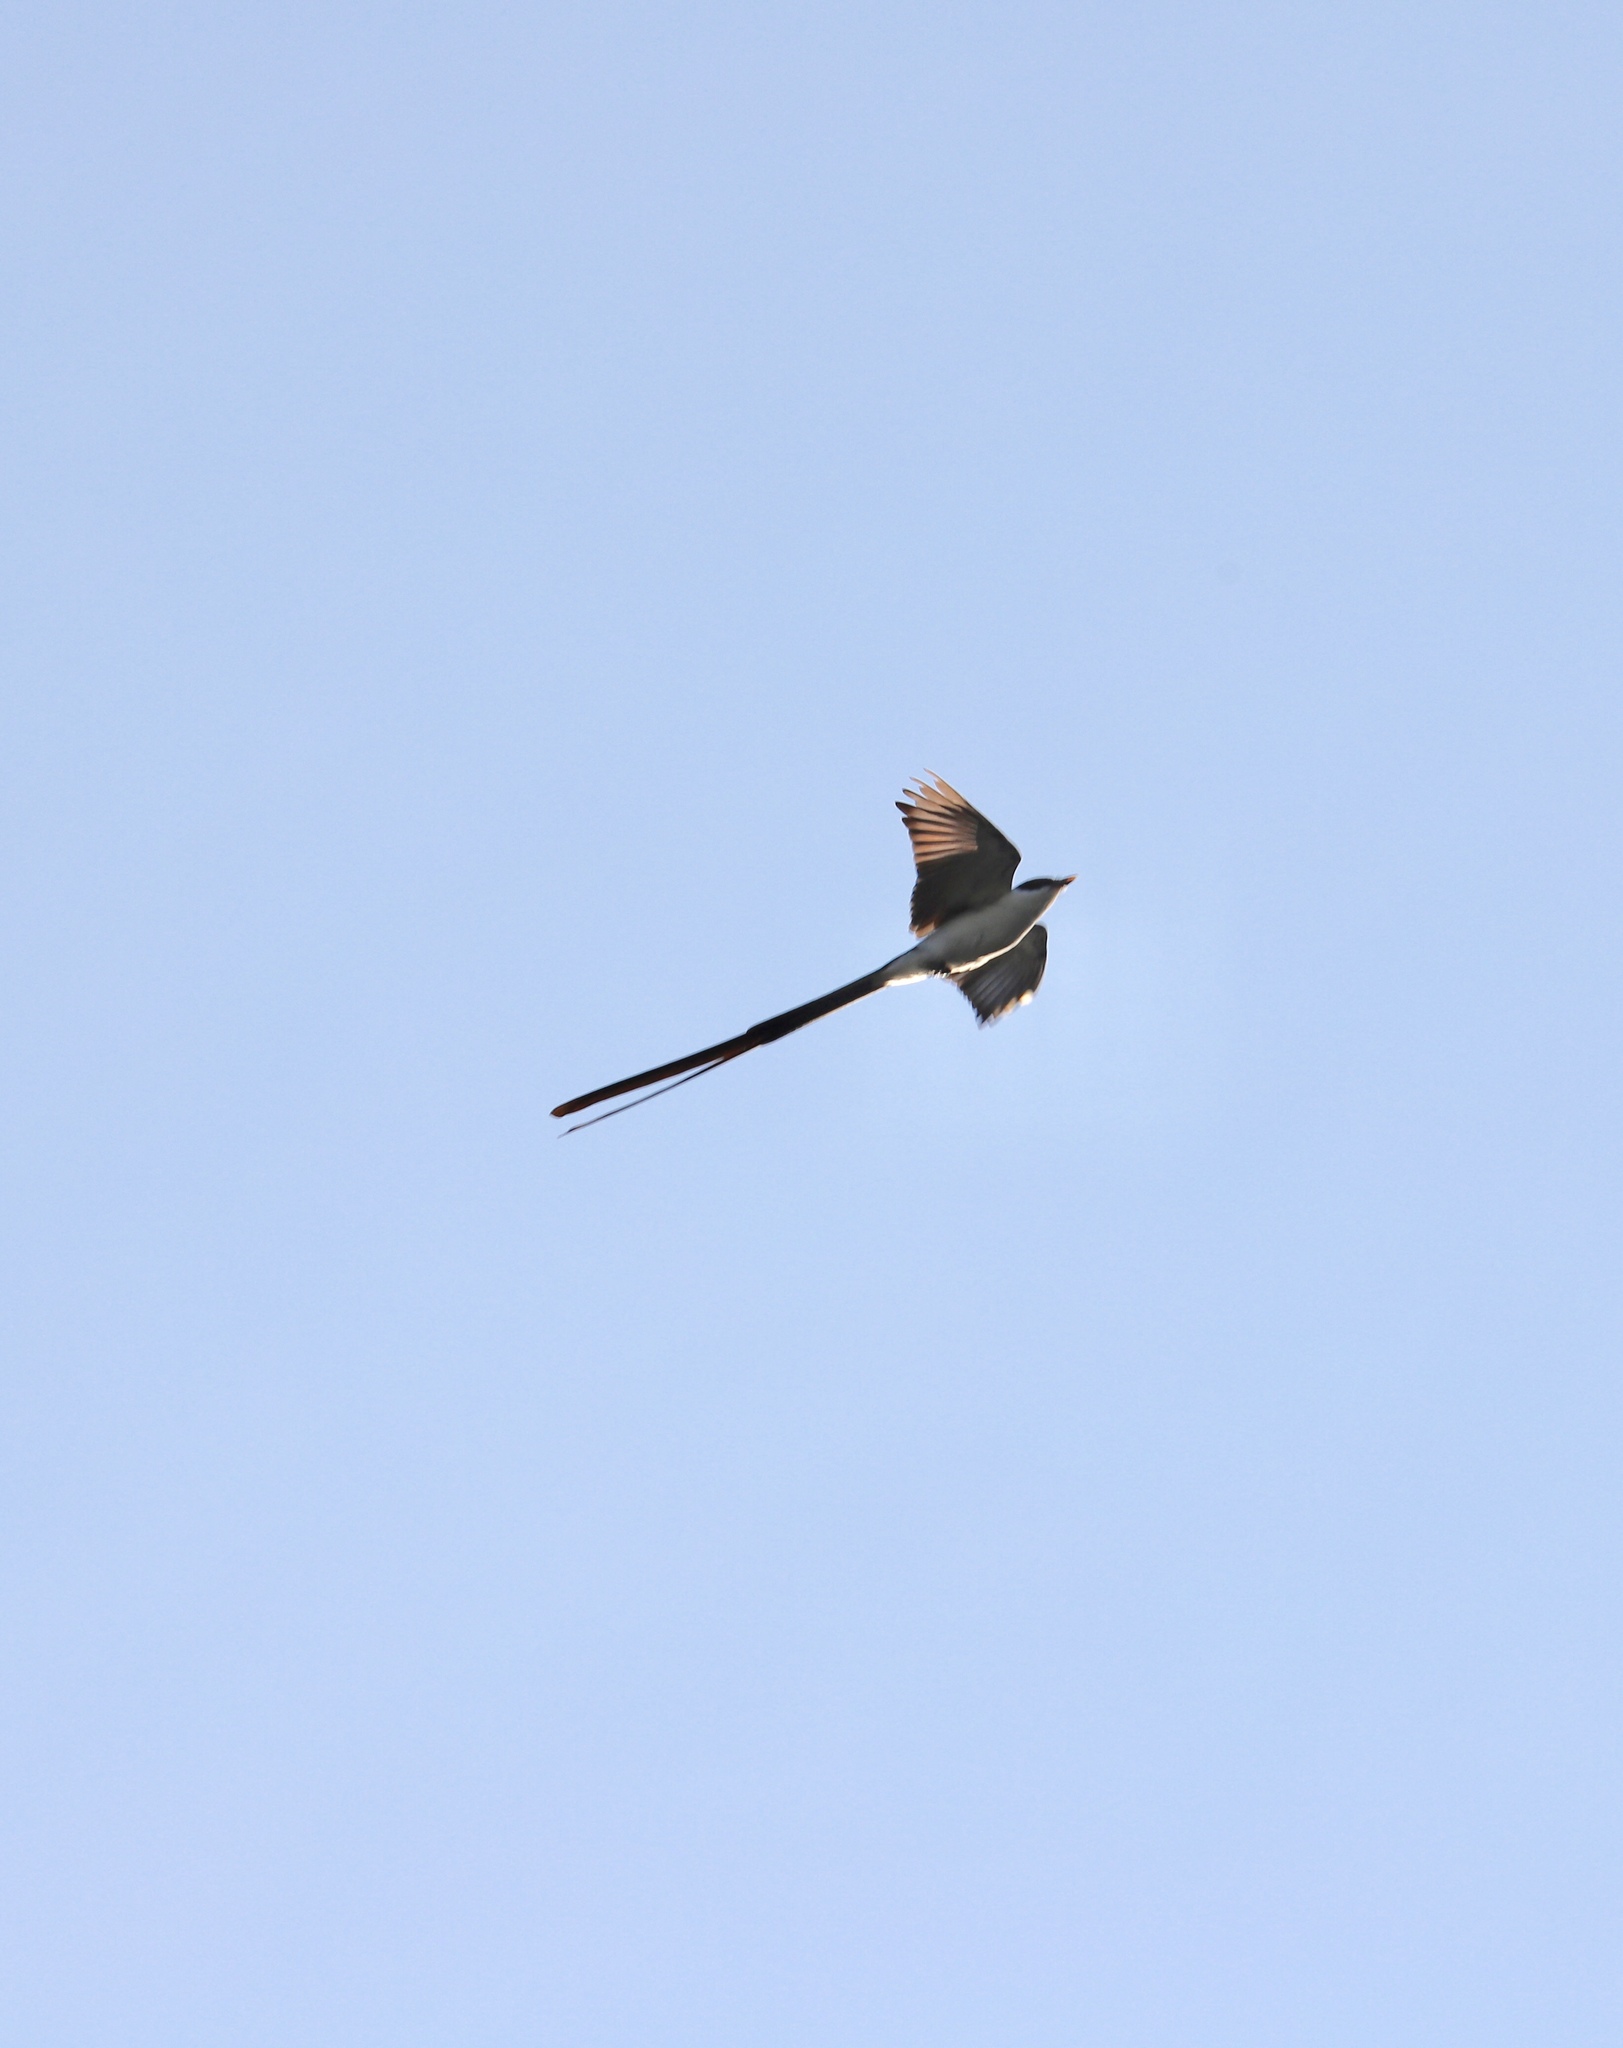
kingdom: Animalia
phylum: Chordata
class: Aves
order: Passeriformes
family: Tyrannidae
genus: Tyrannus
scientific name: Tyrannus savana
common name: Fork-tailed flycatcher
